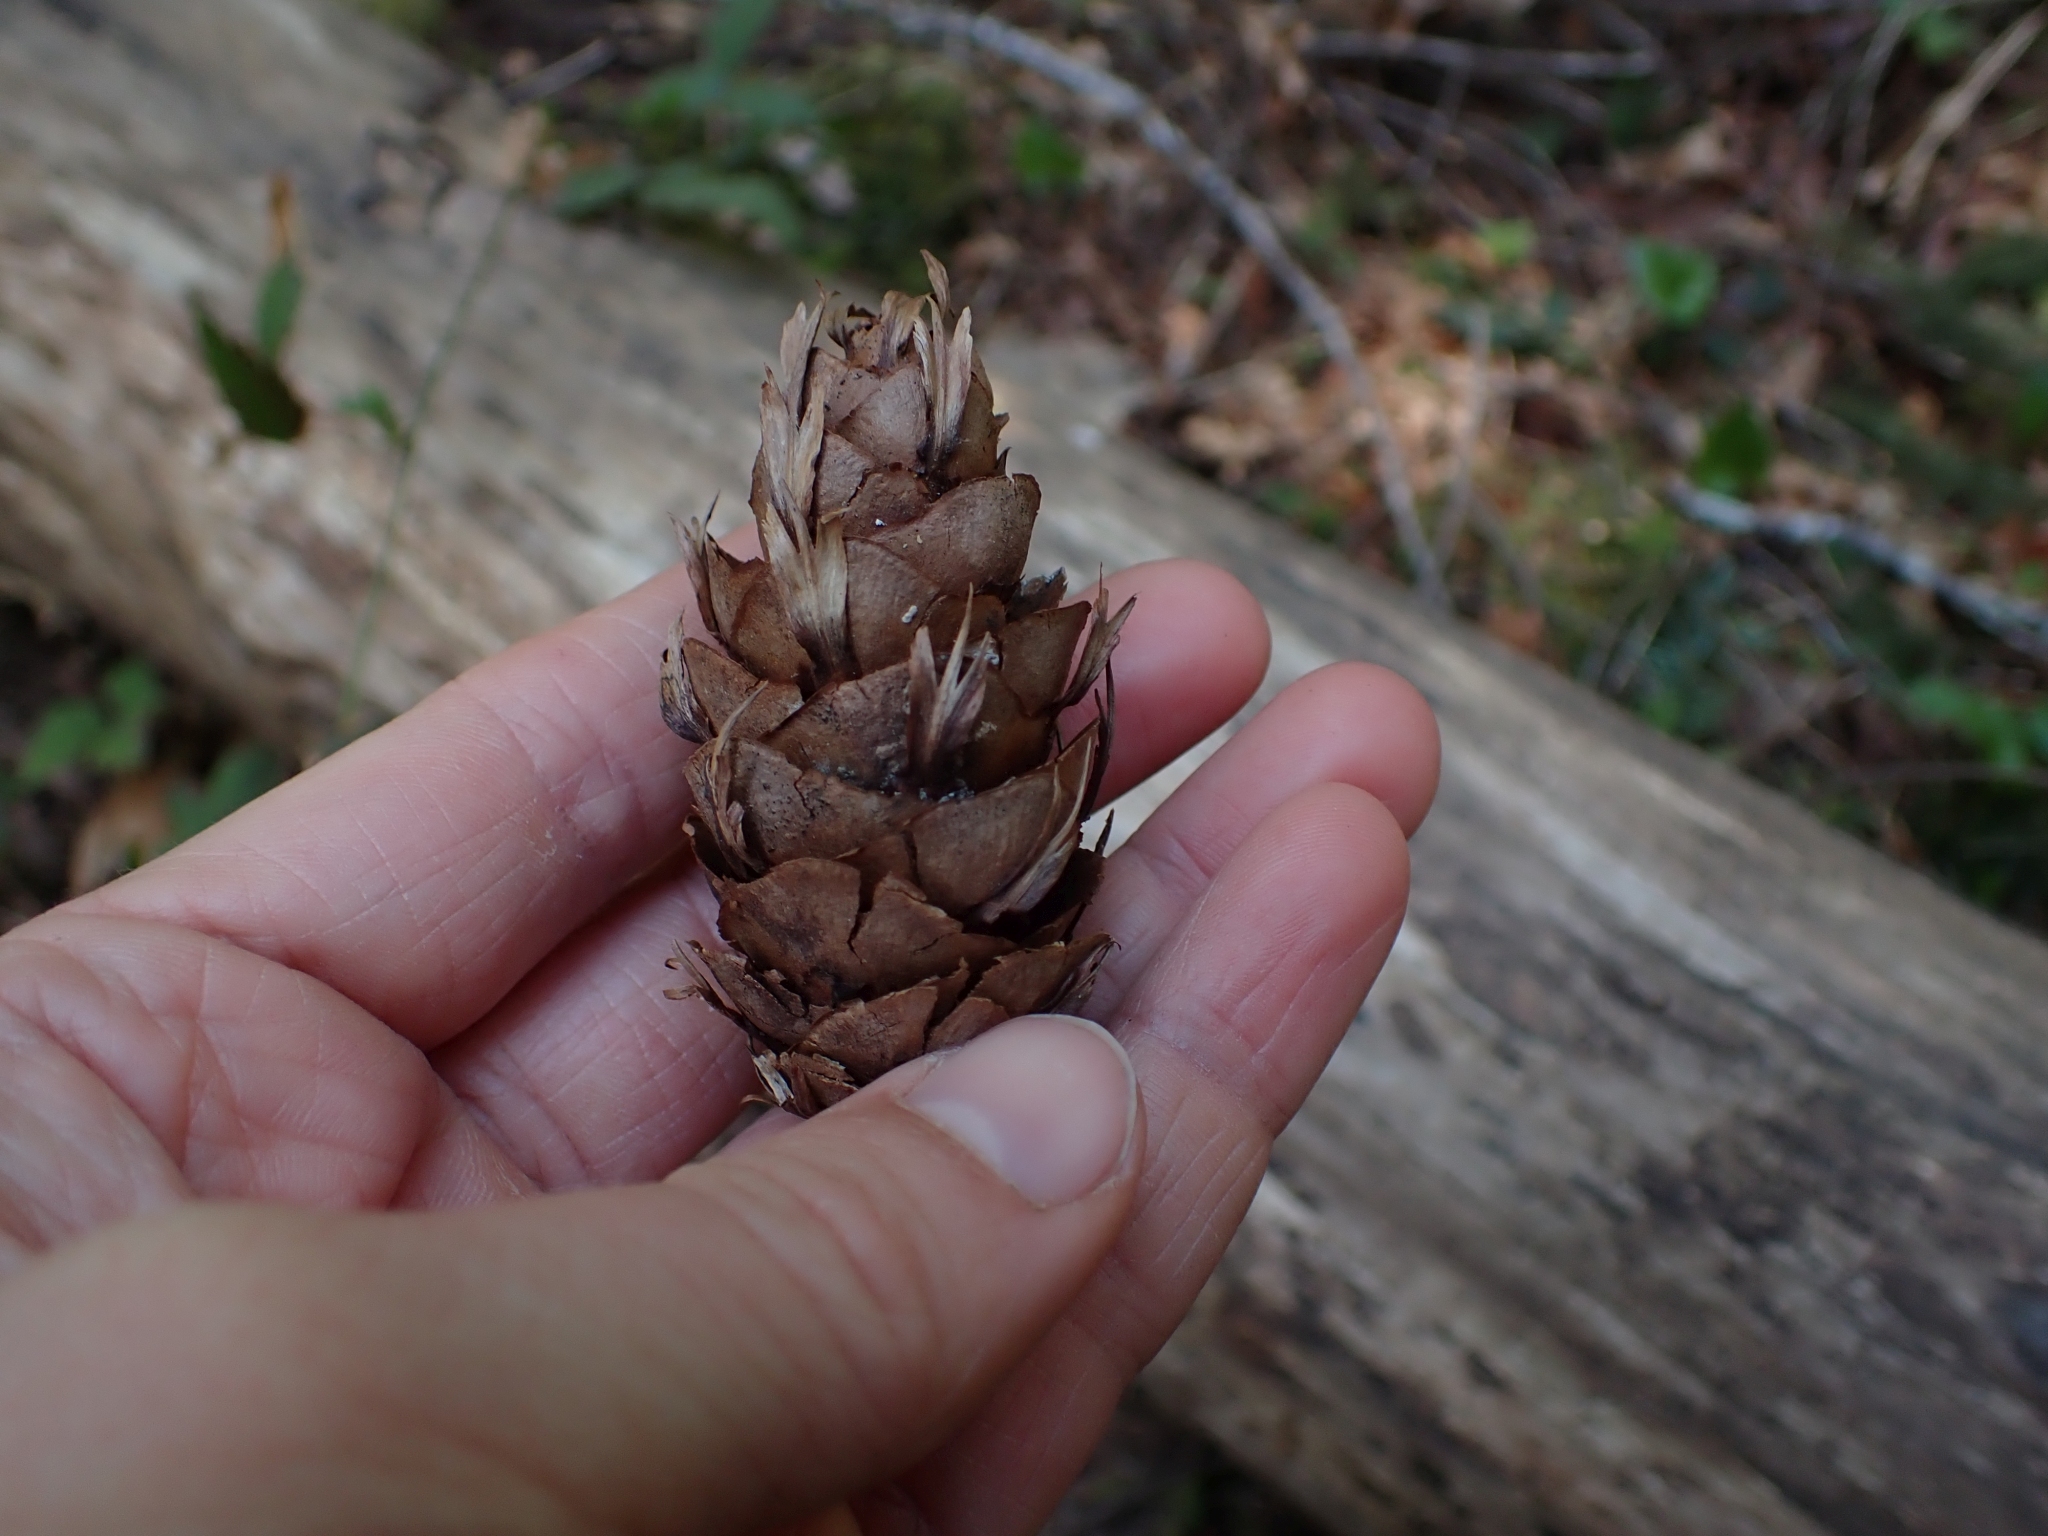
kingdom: Plantae
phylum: Tracheophyta
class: Pinopsida
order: Pinales
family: Pinaceae
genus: Pseudotsuga
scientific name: Pseudotsuga menziesii
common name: Douglas fir
